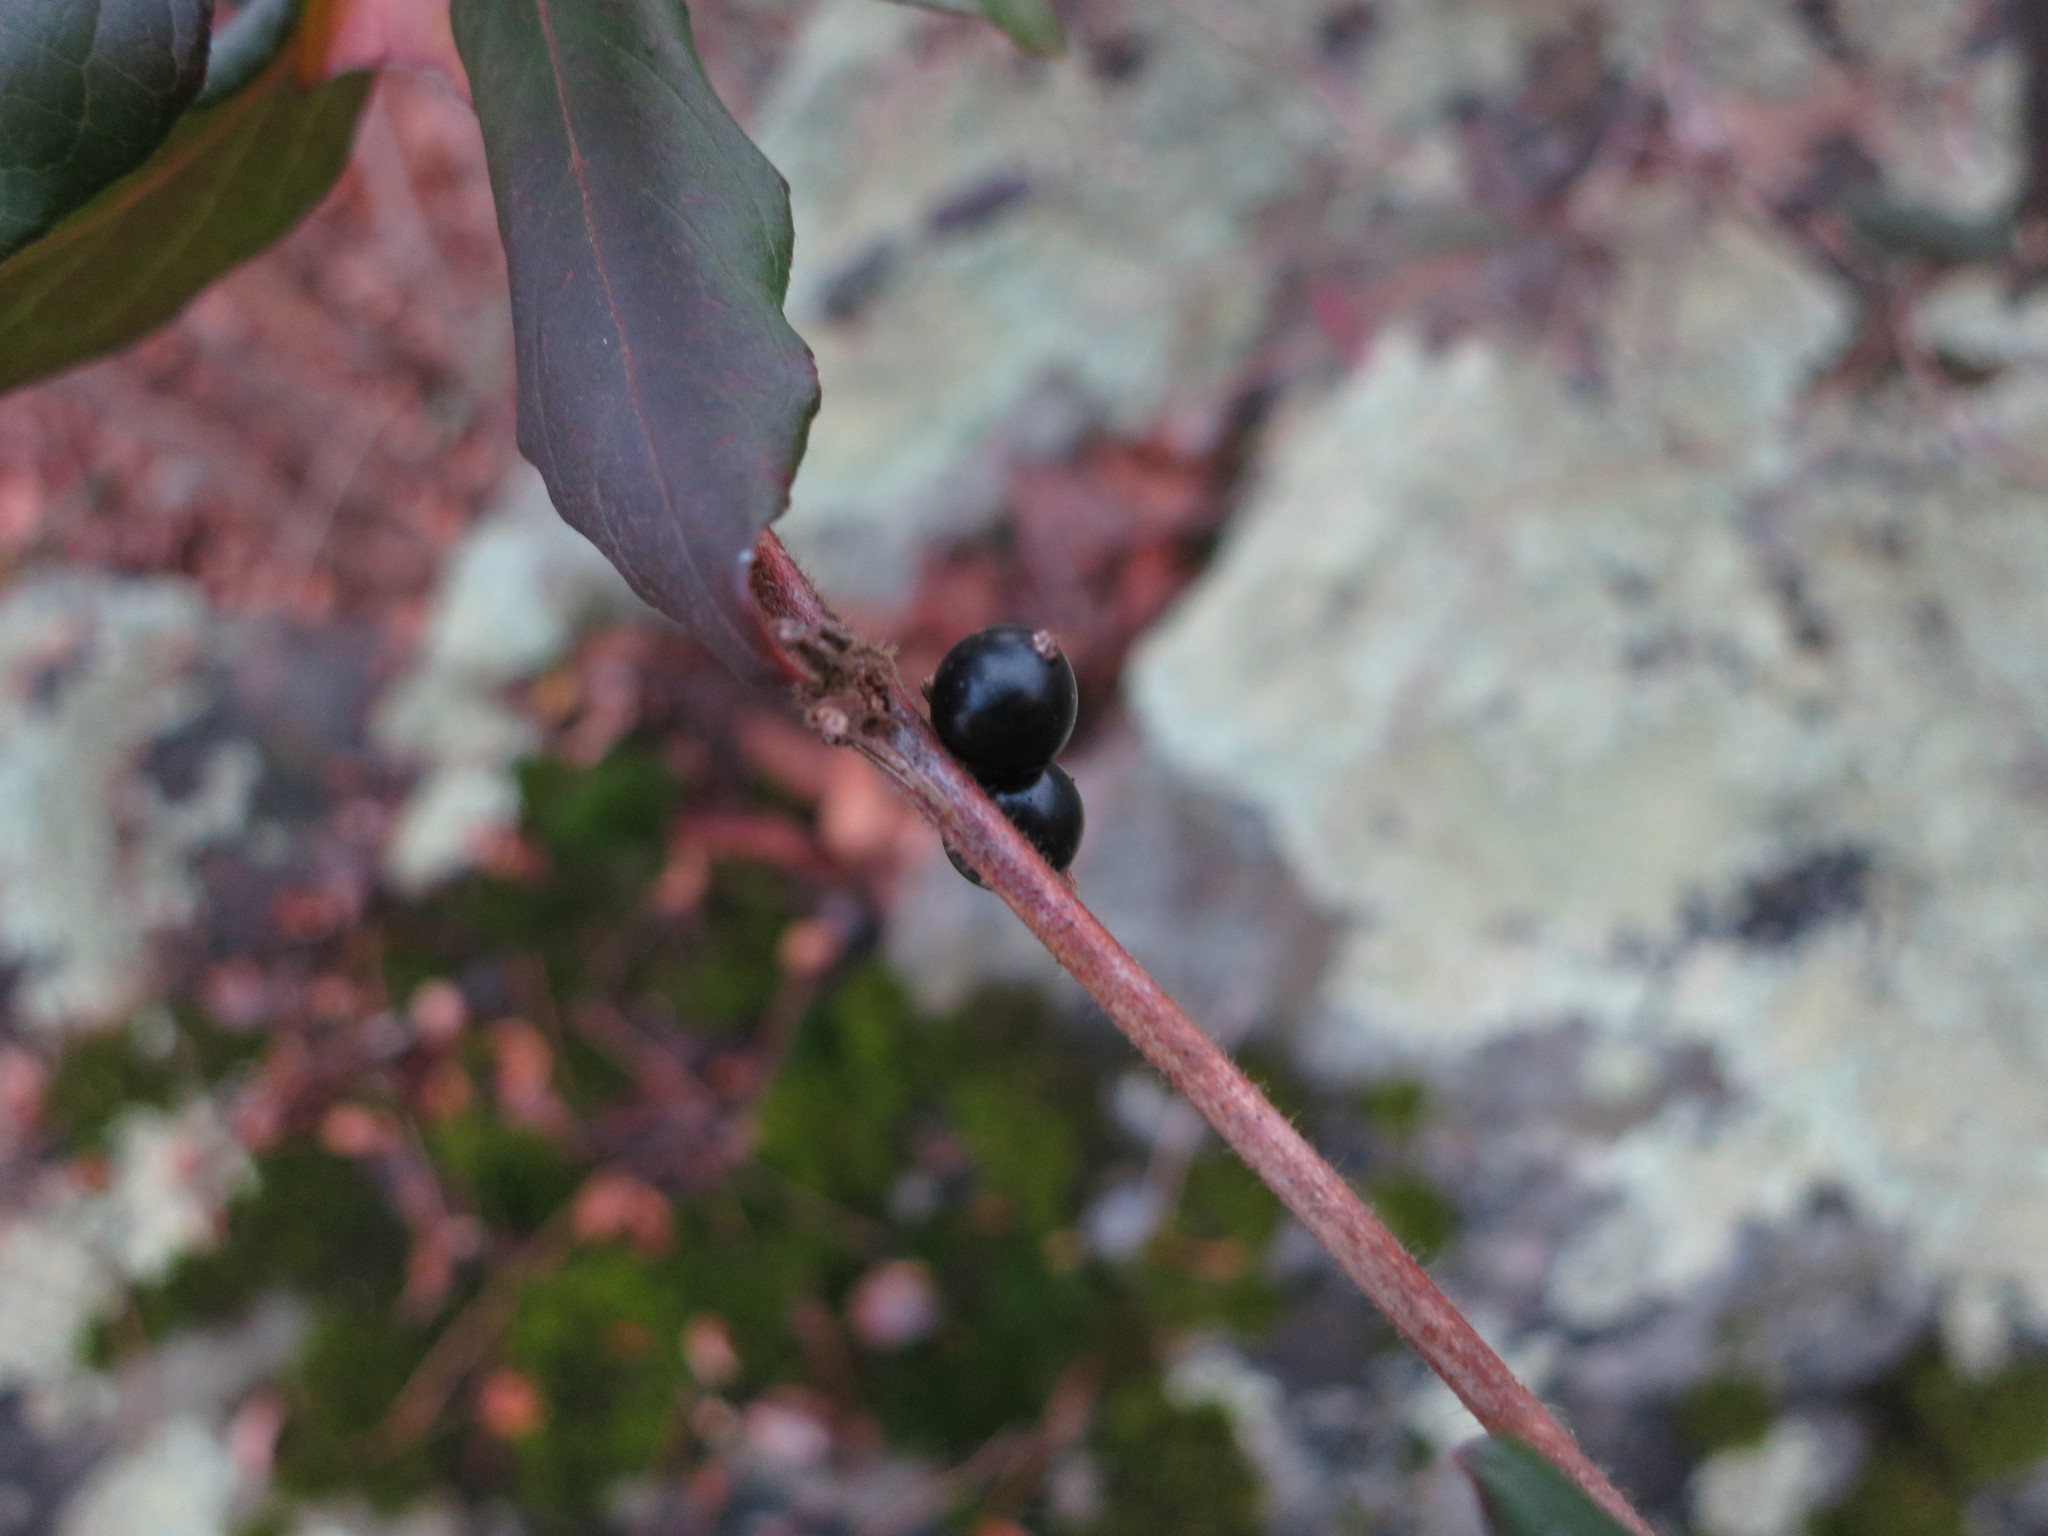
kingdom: Plantae
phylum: Tracheophyta
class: Magnoliopsida
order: Dipsacales
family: Caprifoliaceae
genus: Lonicera
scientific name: Lonicera japonica
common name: Japanese honeysuckle
